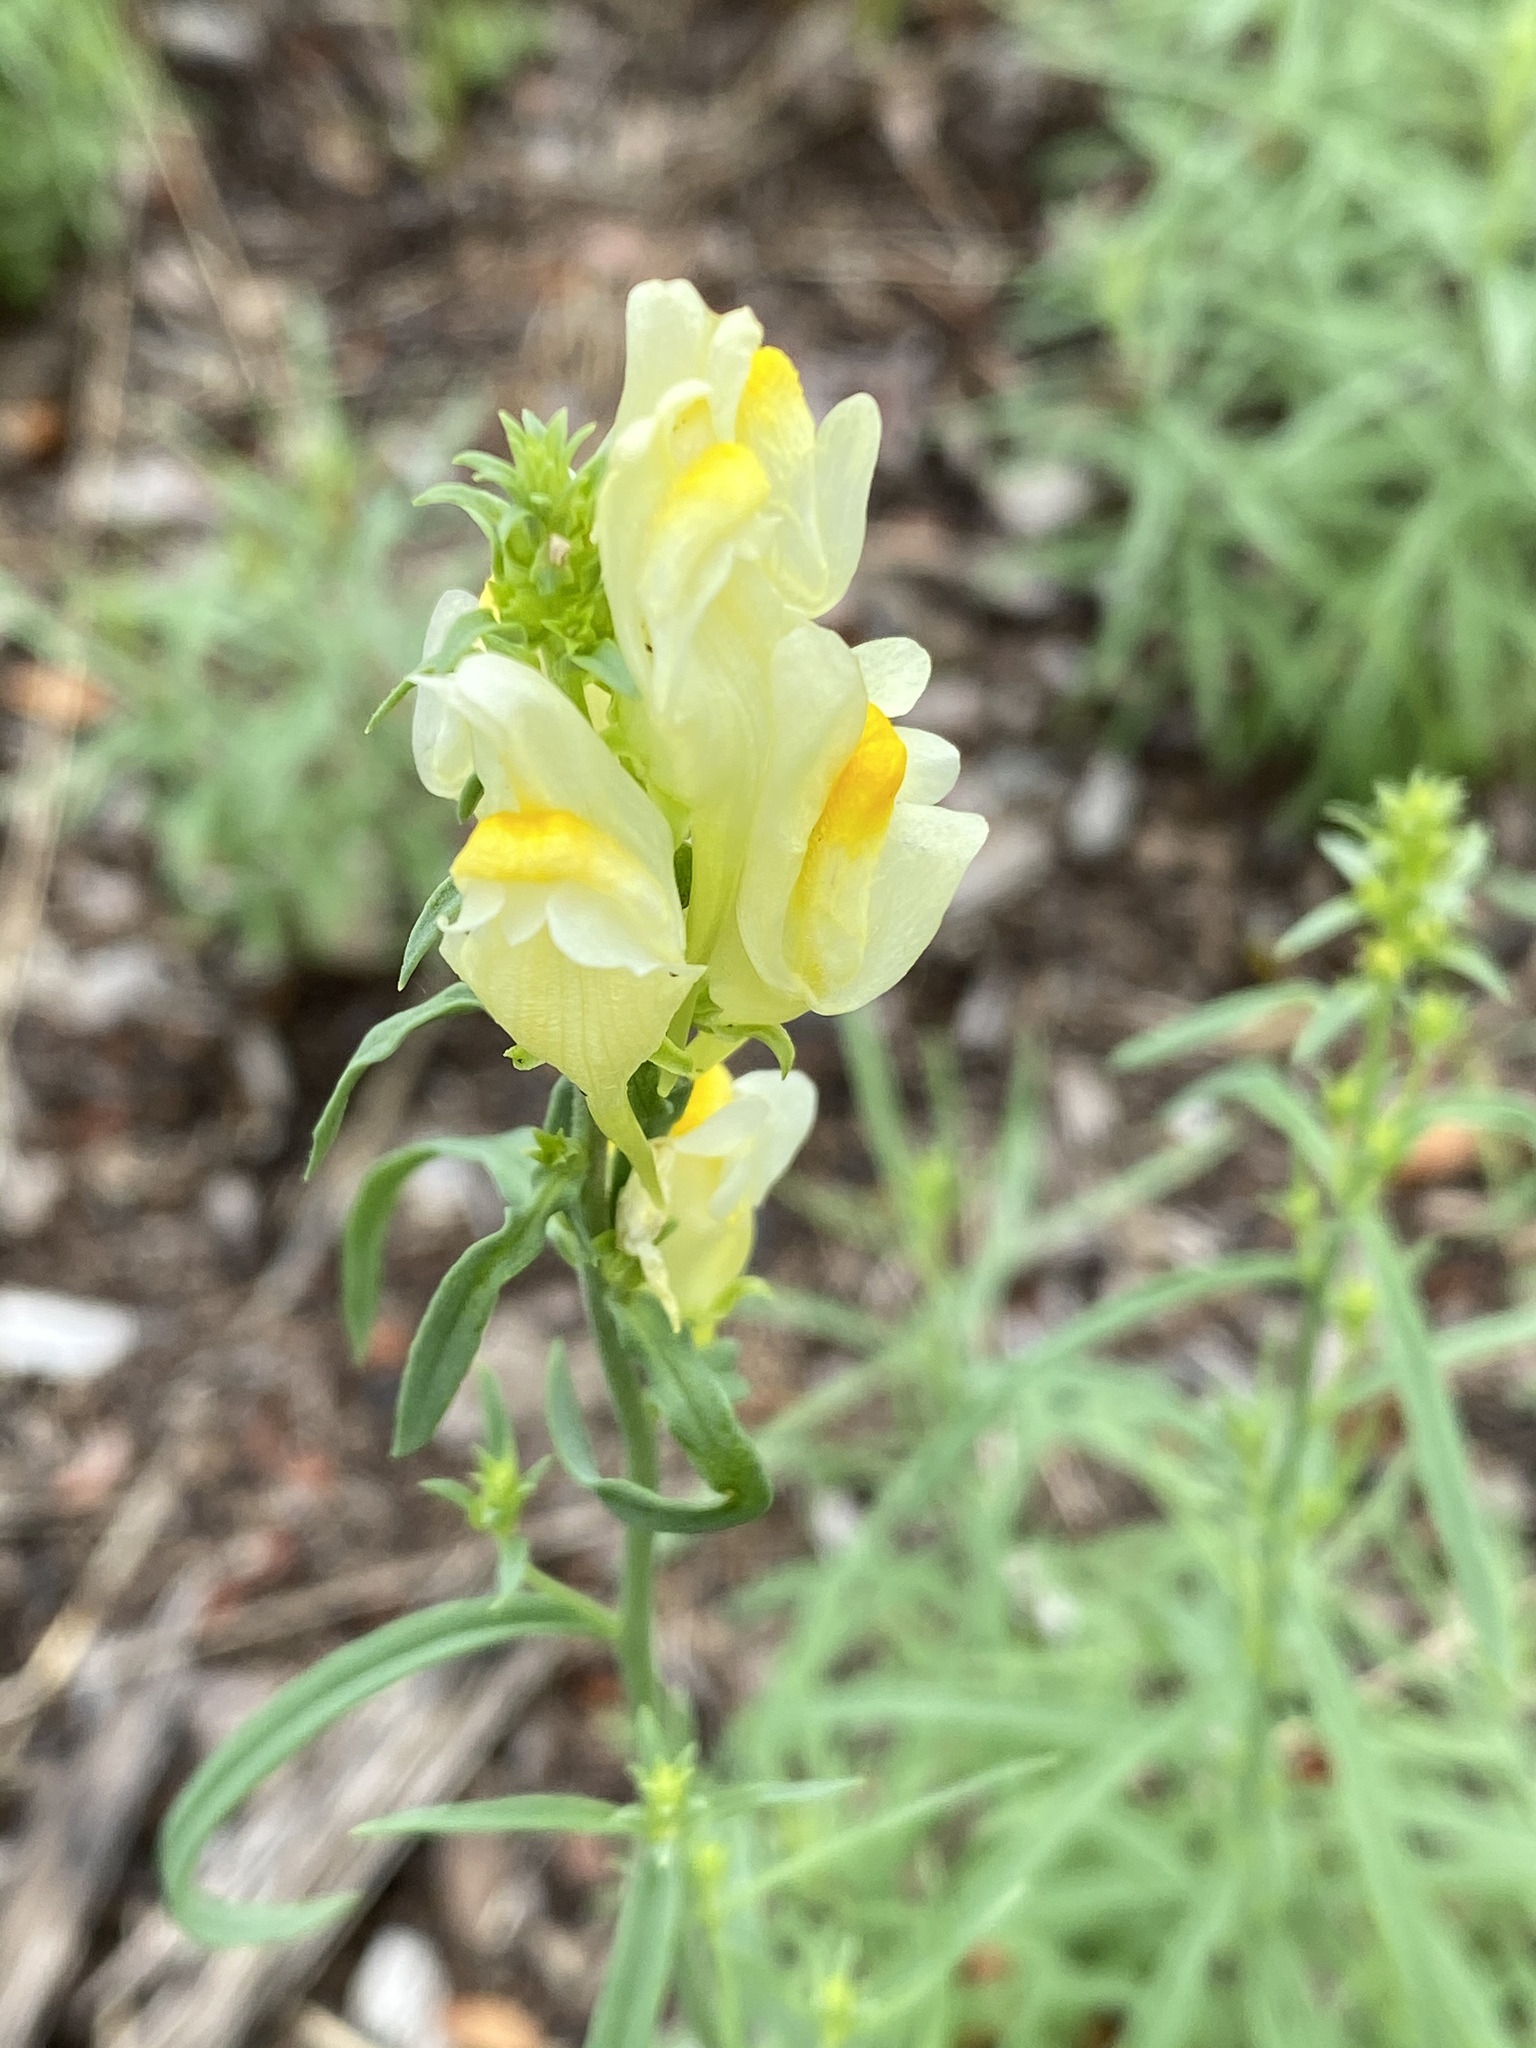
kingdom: Plantae
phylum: Tracheophyta
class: Magnoliopsida
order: Lamiales
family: Plantaginaceae
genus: Linaria
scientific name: Linaria vulgaris
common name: Butter and eggs
